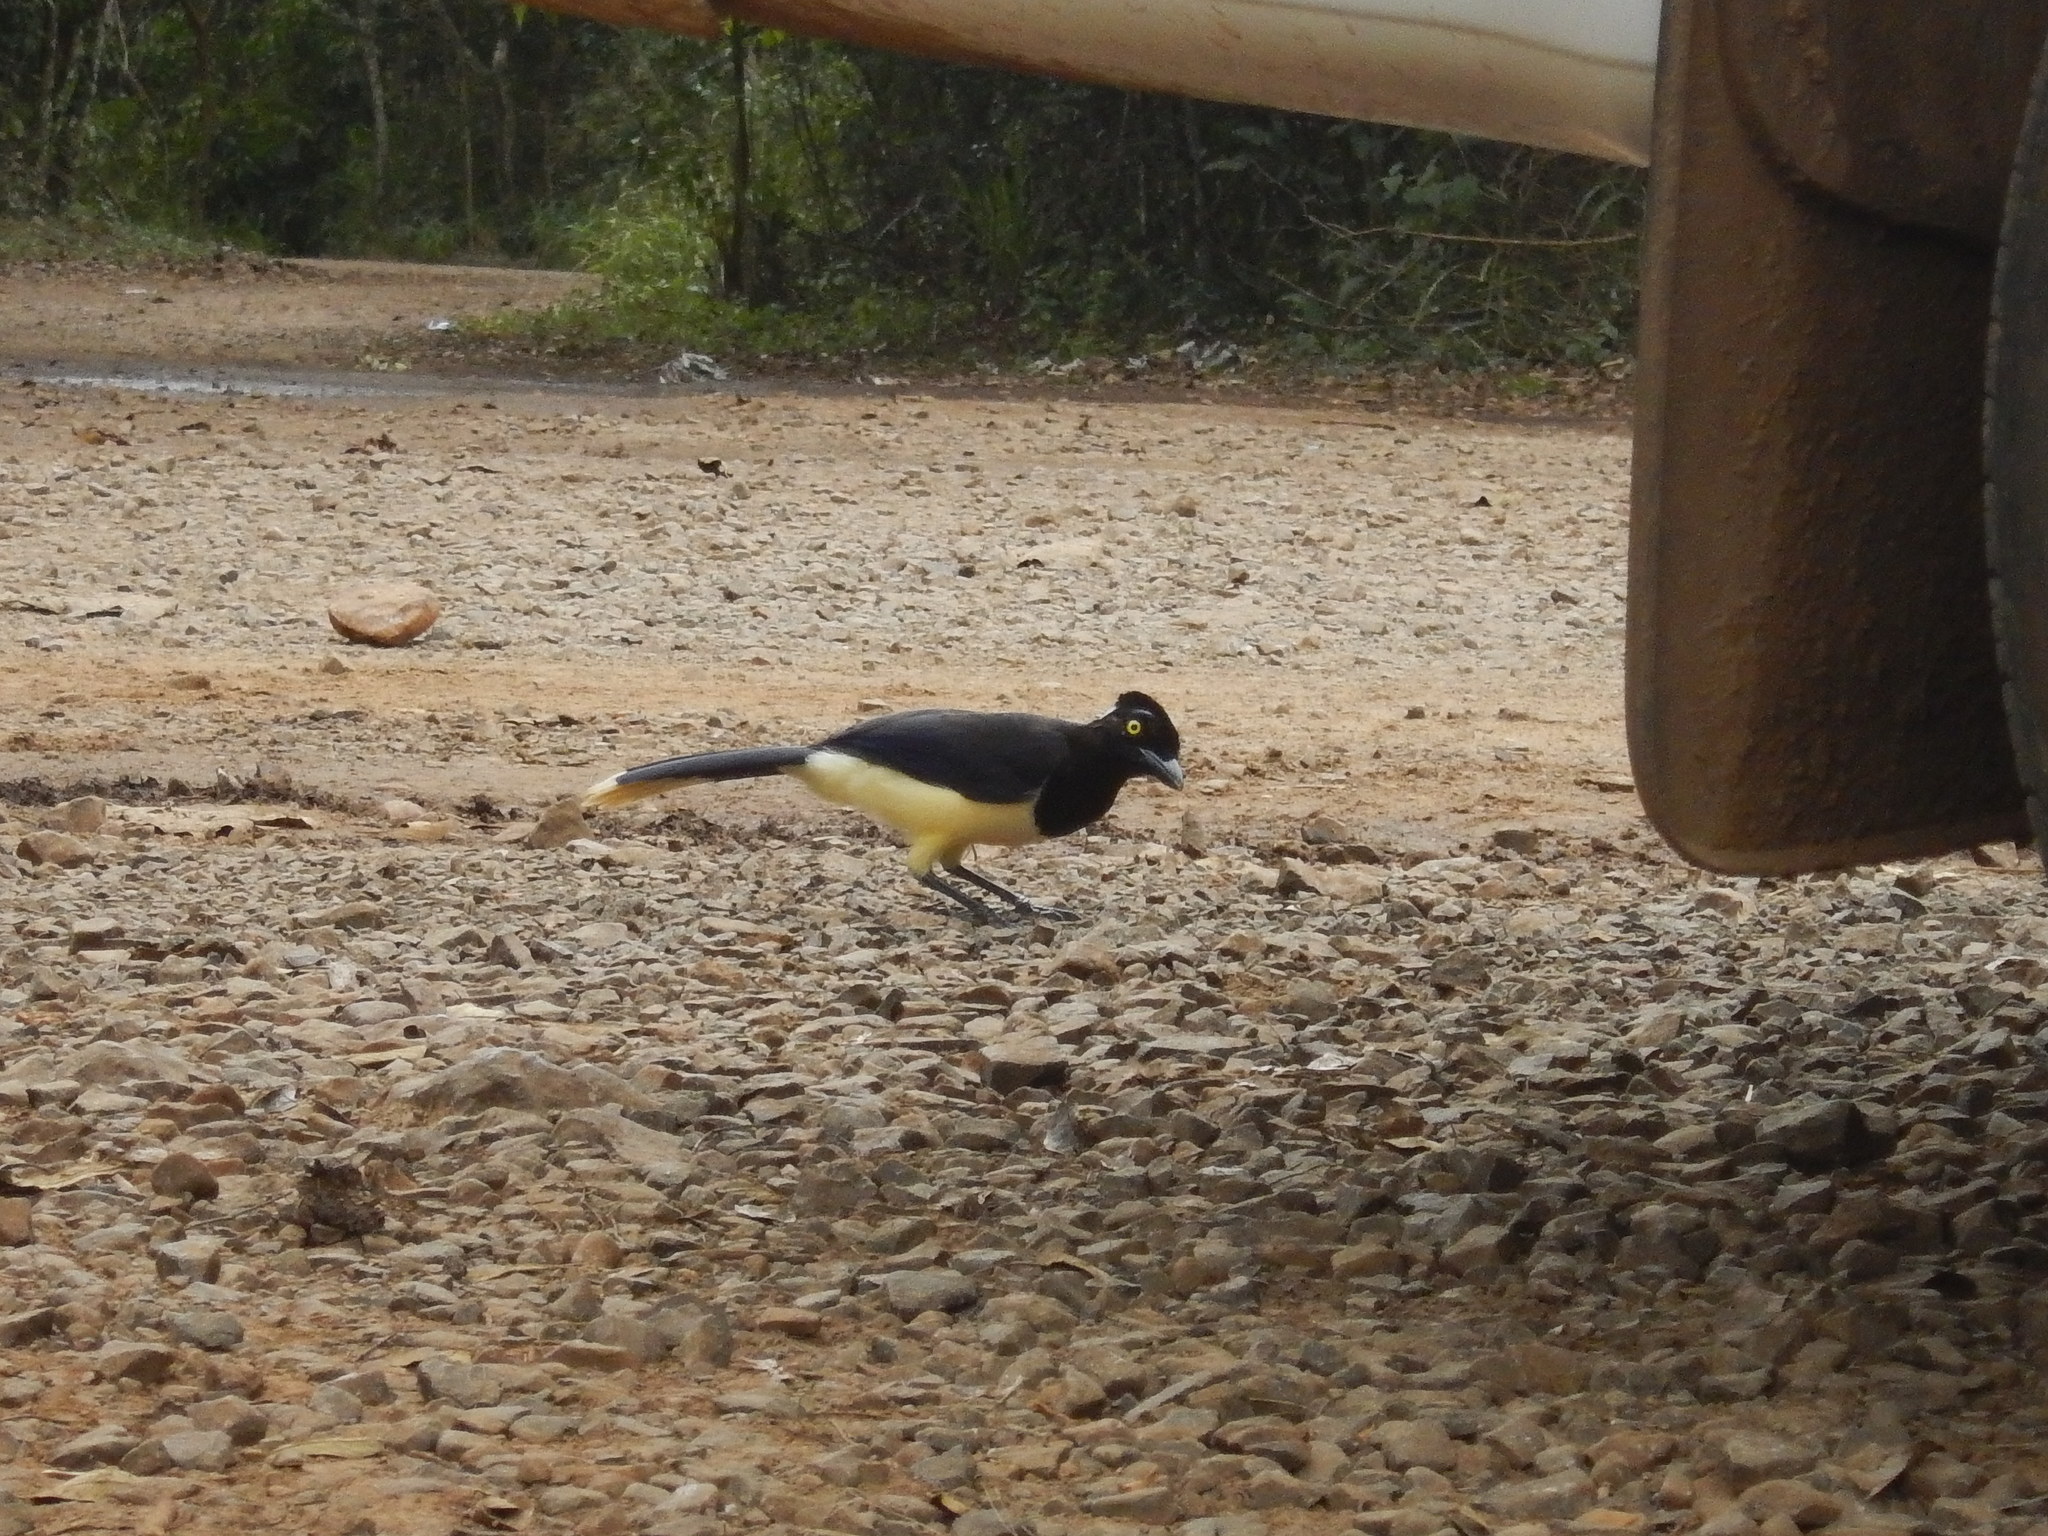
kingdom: Animalia
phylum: Chordata
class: Aves
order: Passeriformes
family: Corvidae
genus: Cyanocorax
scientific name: Cyanocorax chrysops
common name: Plush-crested jay
